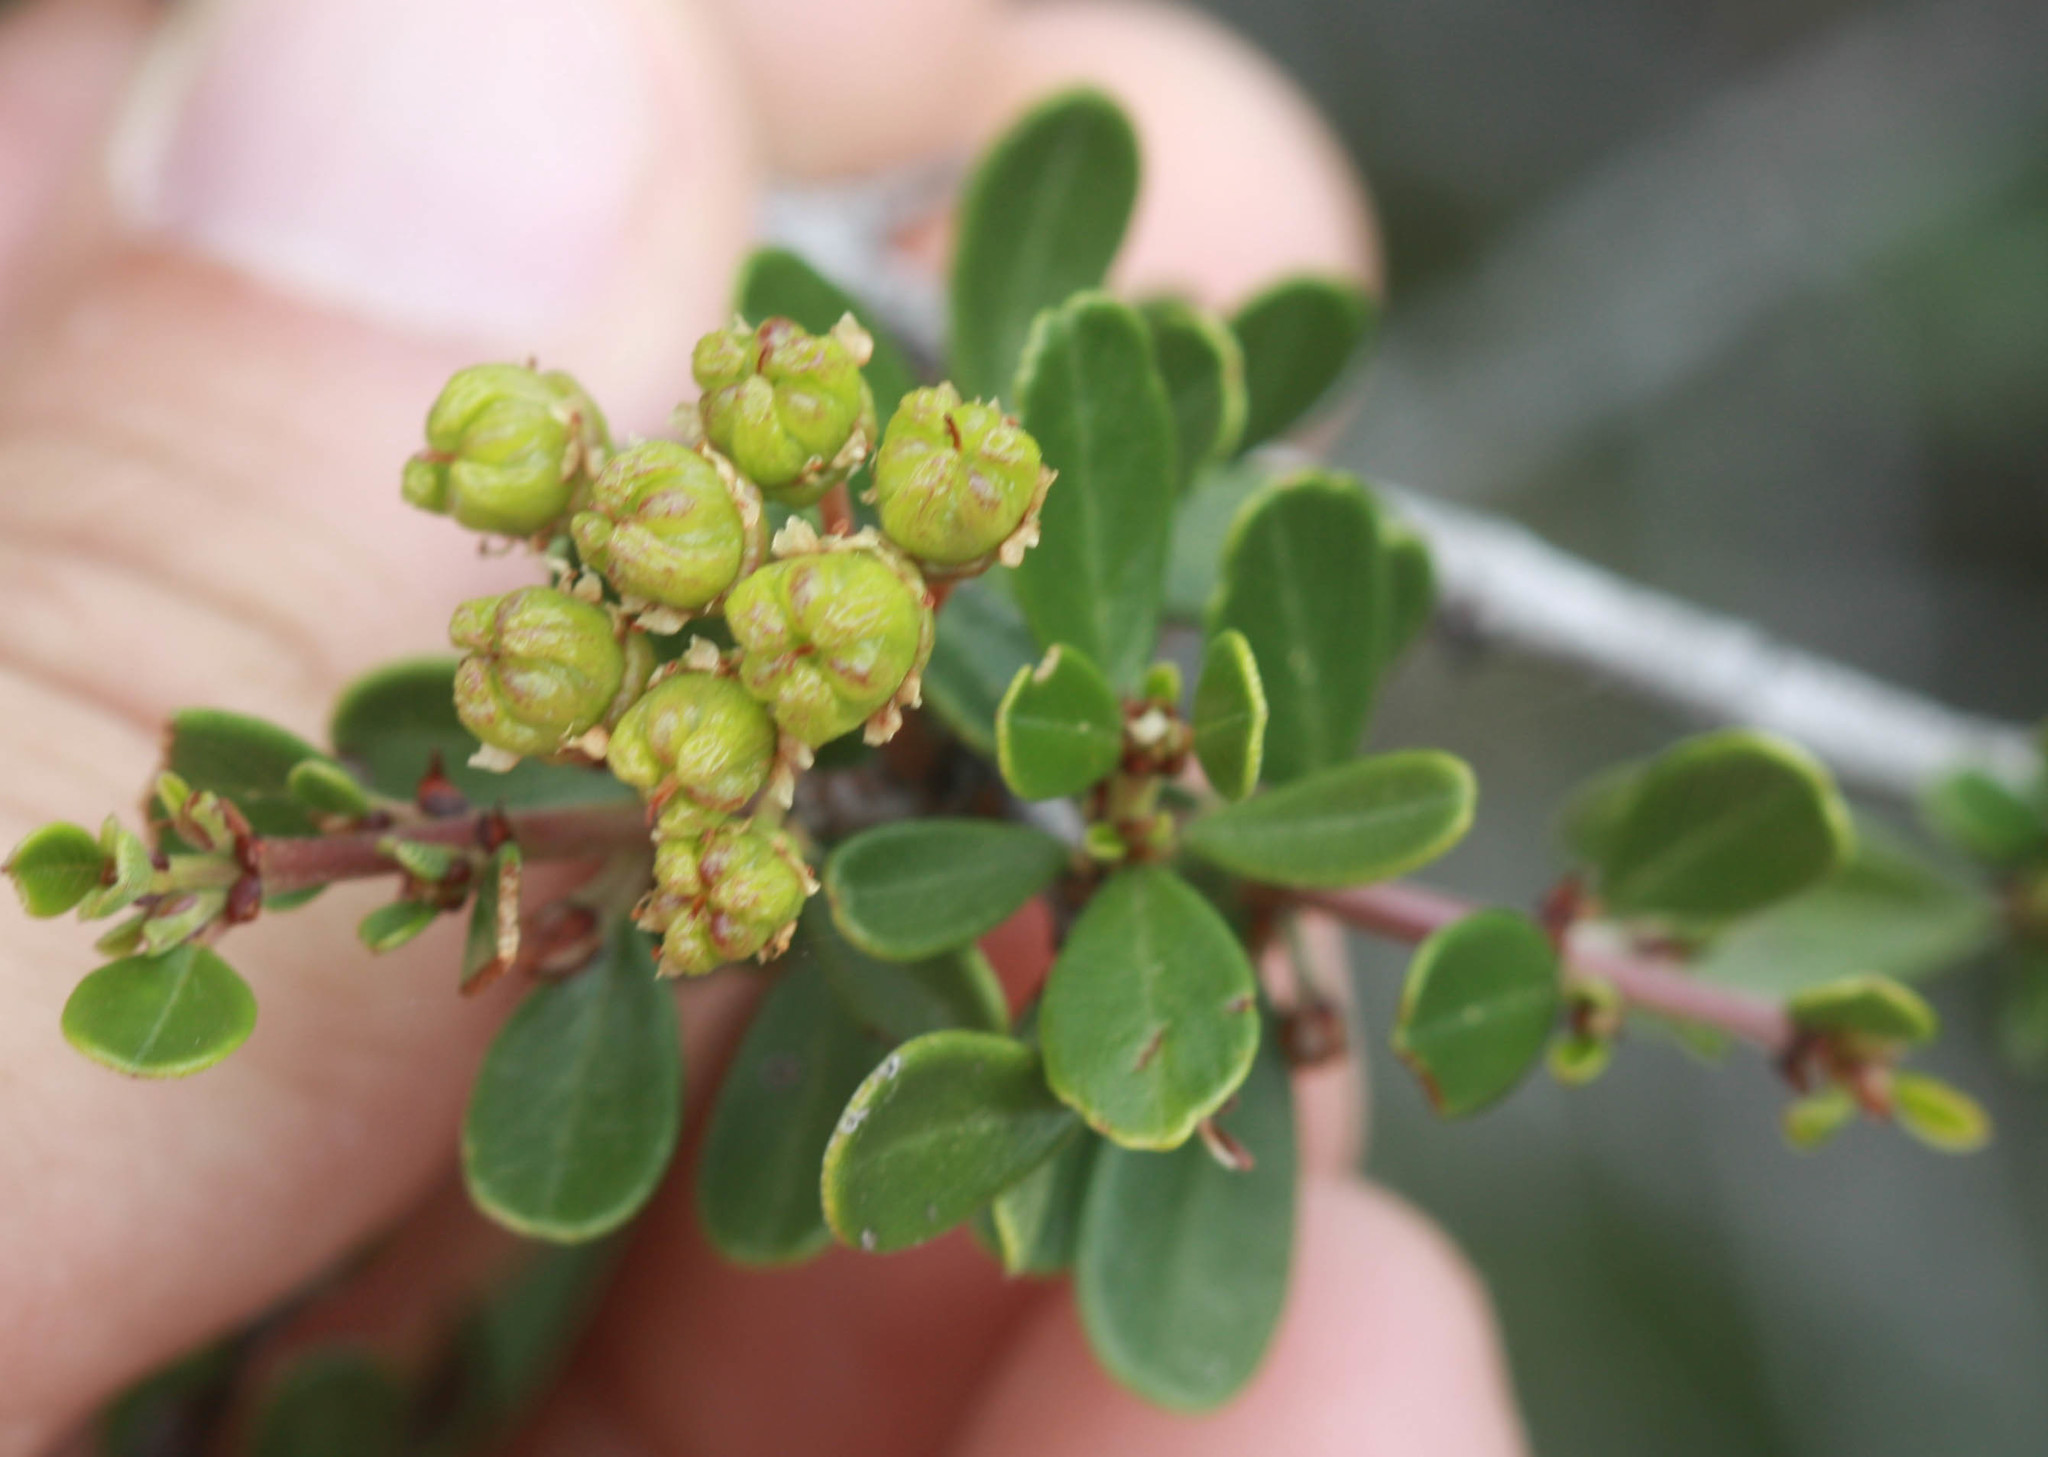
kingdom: Plantae
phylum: Tracheophyta
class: Magnoliopsida
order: Rosales
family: Rhamnaceae
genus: Ceanothus
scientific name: Ceanothus cuneatus
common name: Cuneate ceanothus
